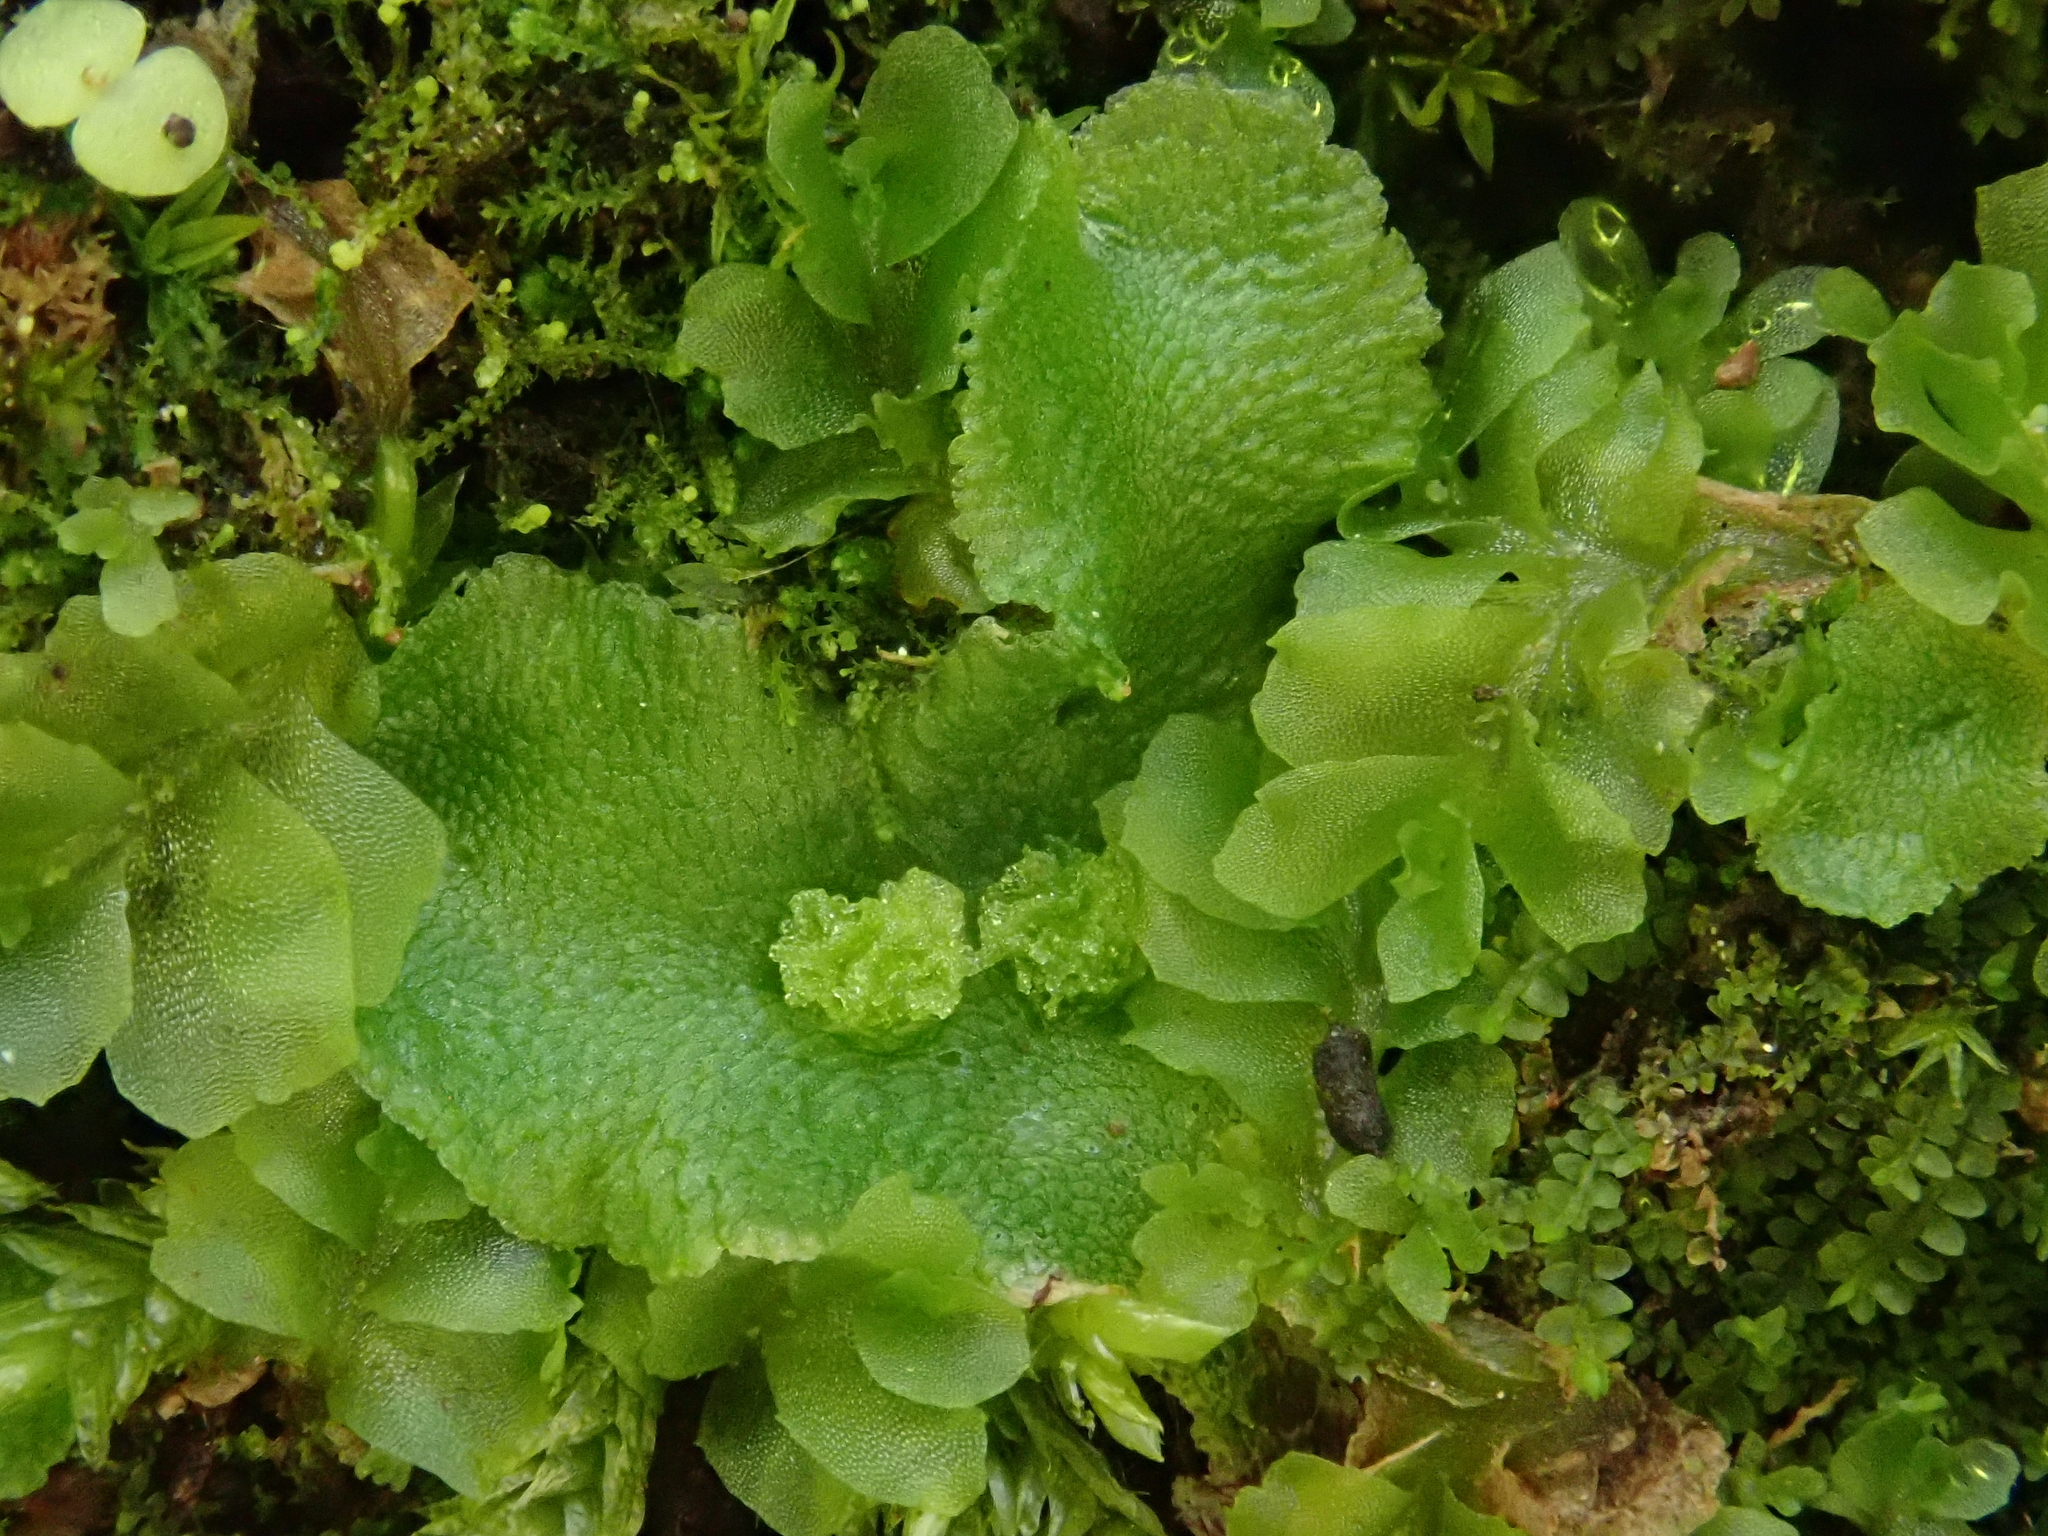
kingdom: Plantae
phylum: Marchantiophyta
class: Marchantiopsida
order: Marchantiales
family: Corsiniaceae
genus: Corsinia
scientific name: Corsinia coriandrina
